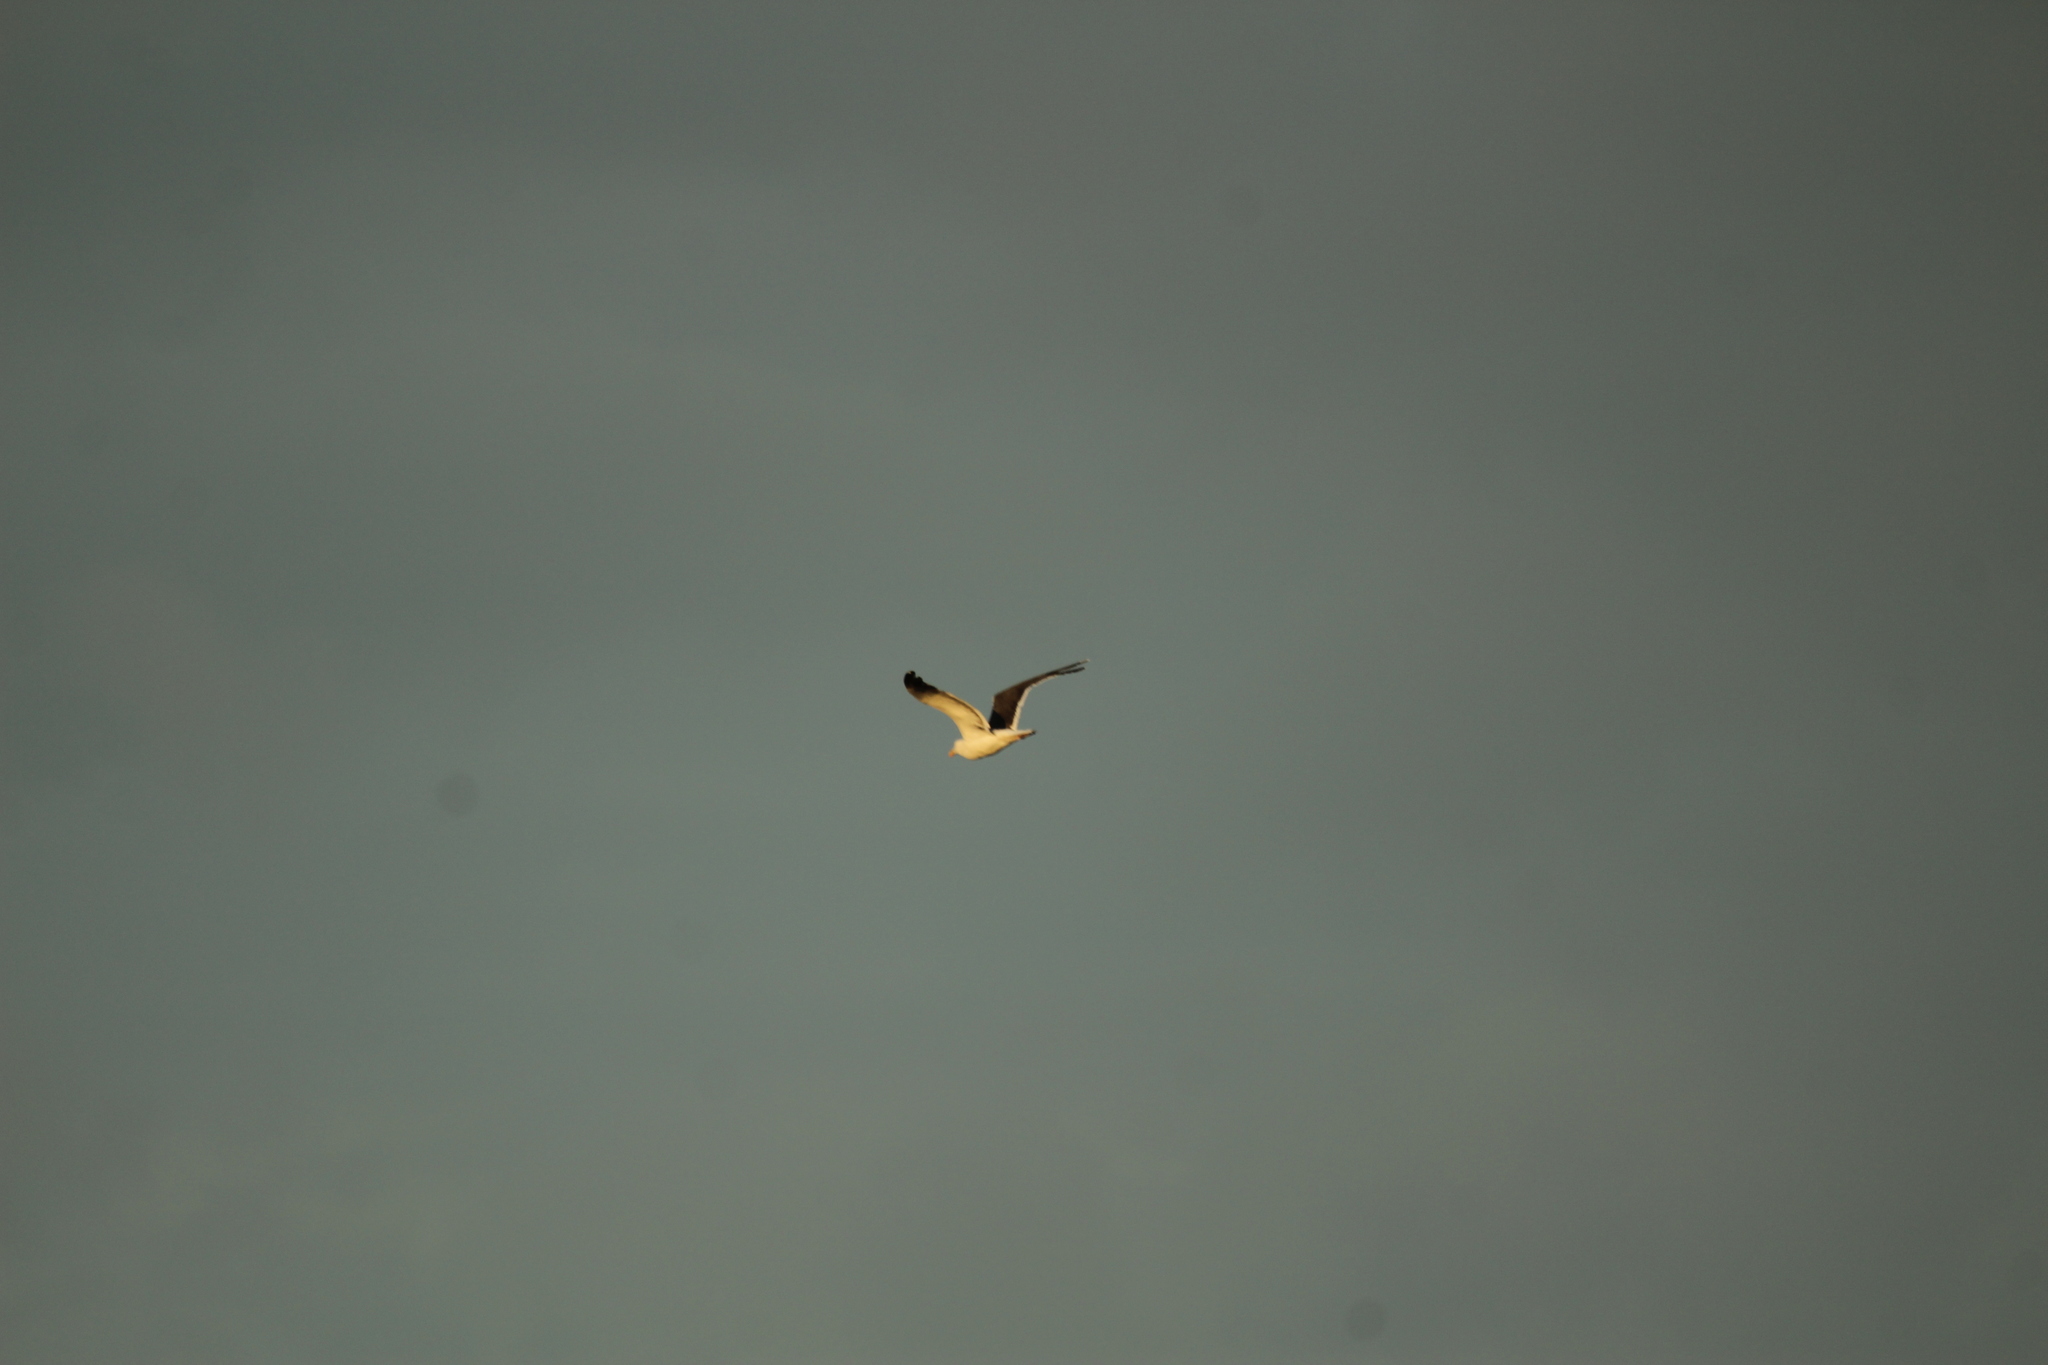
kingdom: Animalia
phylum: Chordata
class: Aves
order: Charadriiformes
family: Laridae
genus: Larus
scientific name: Larus livens
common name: Yellow-footed gull
